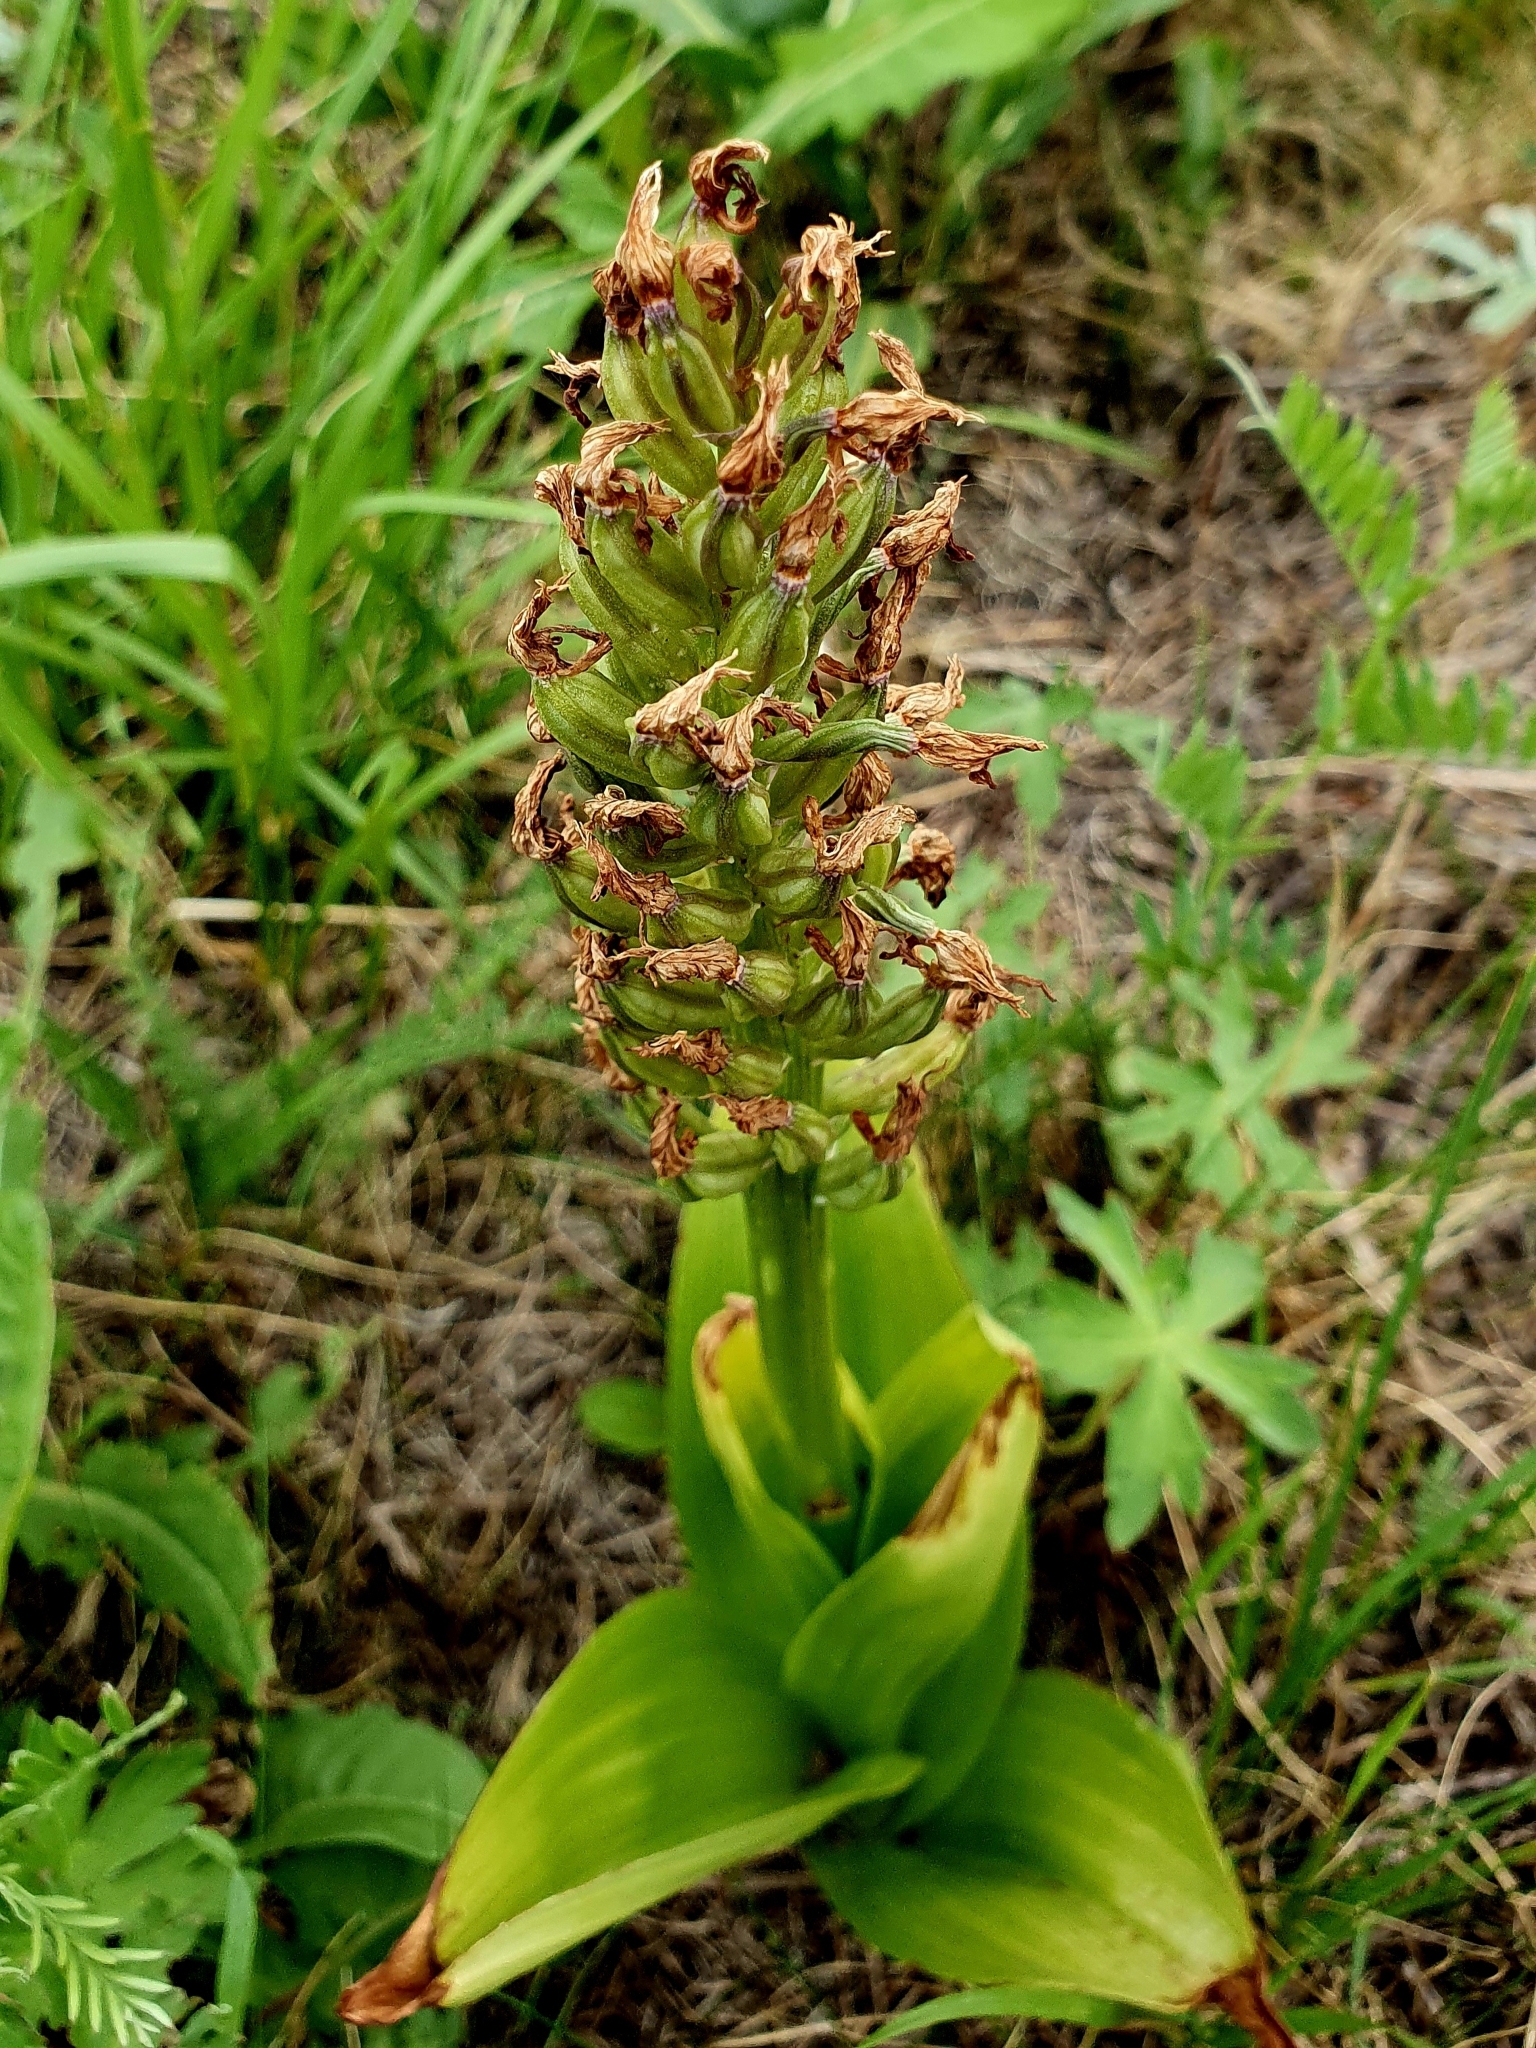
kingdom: Plantae
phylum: Tracheophyta
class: Liliopsida
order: Asparagales
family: Orchidaceae
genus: Orchis
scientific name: Orchis militaris
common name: Military orchid
